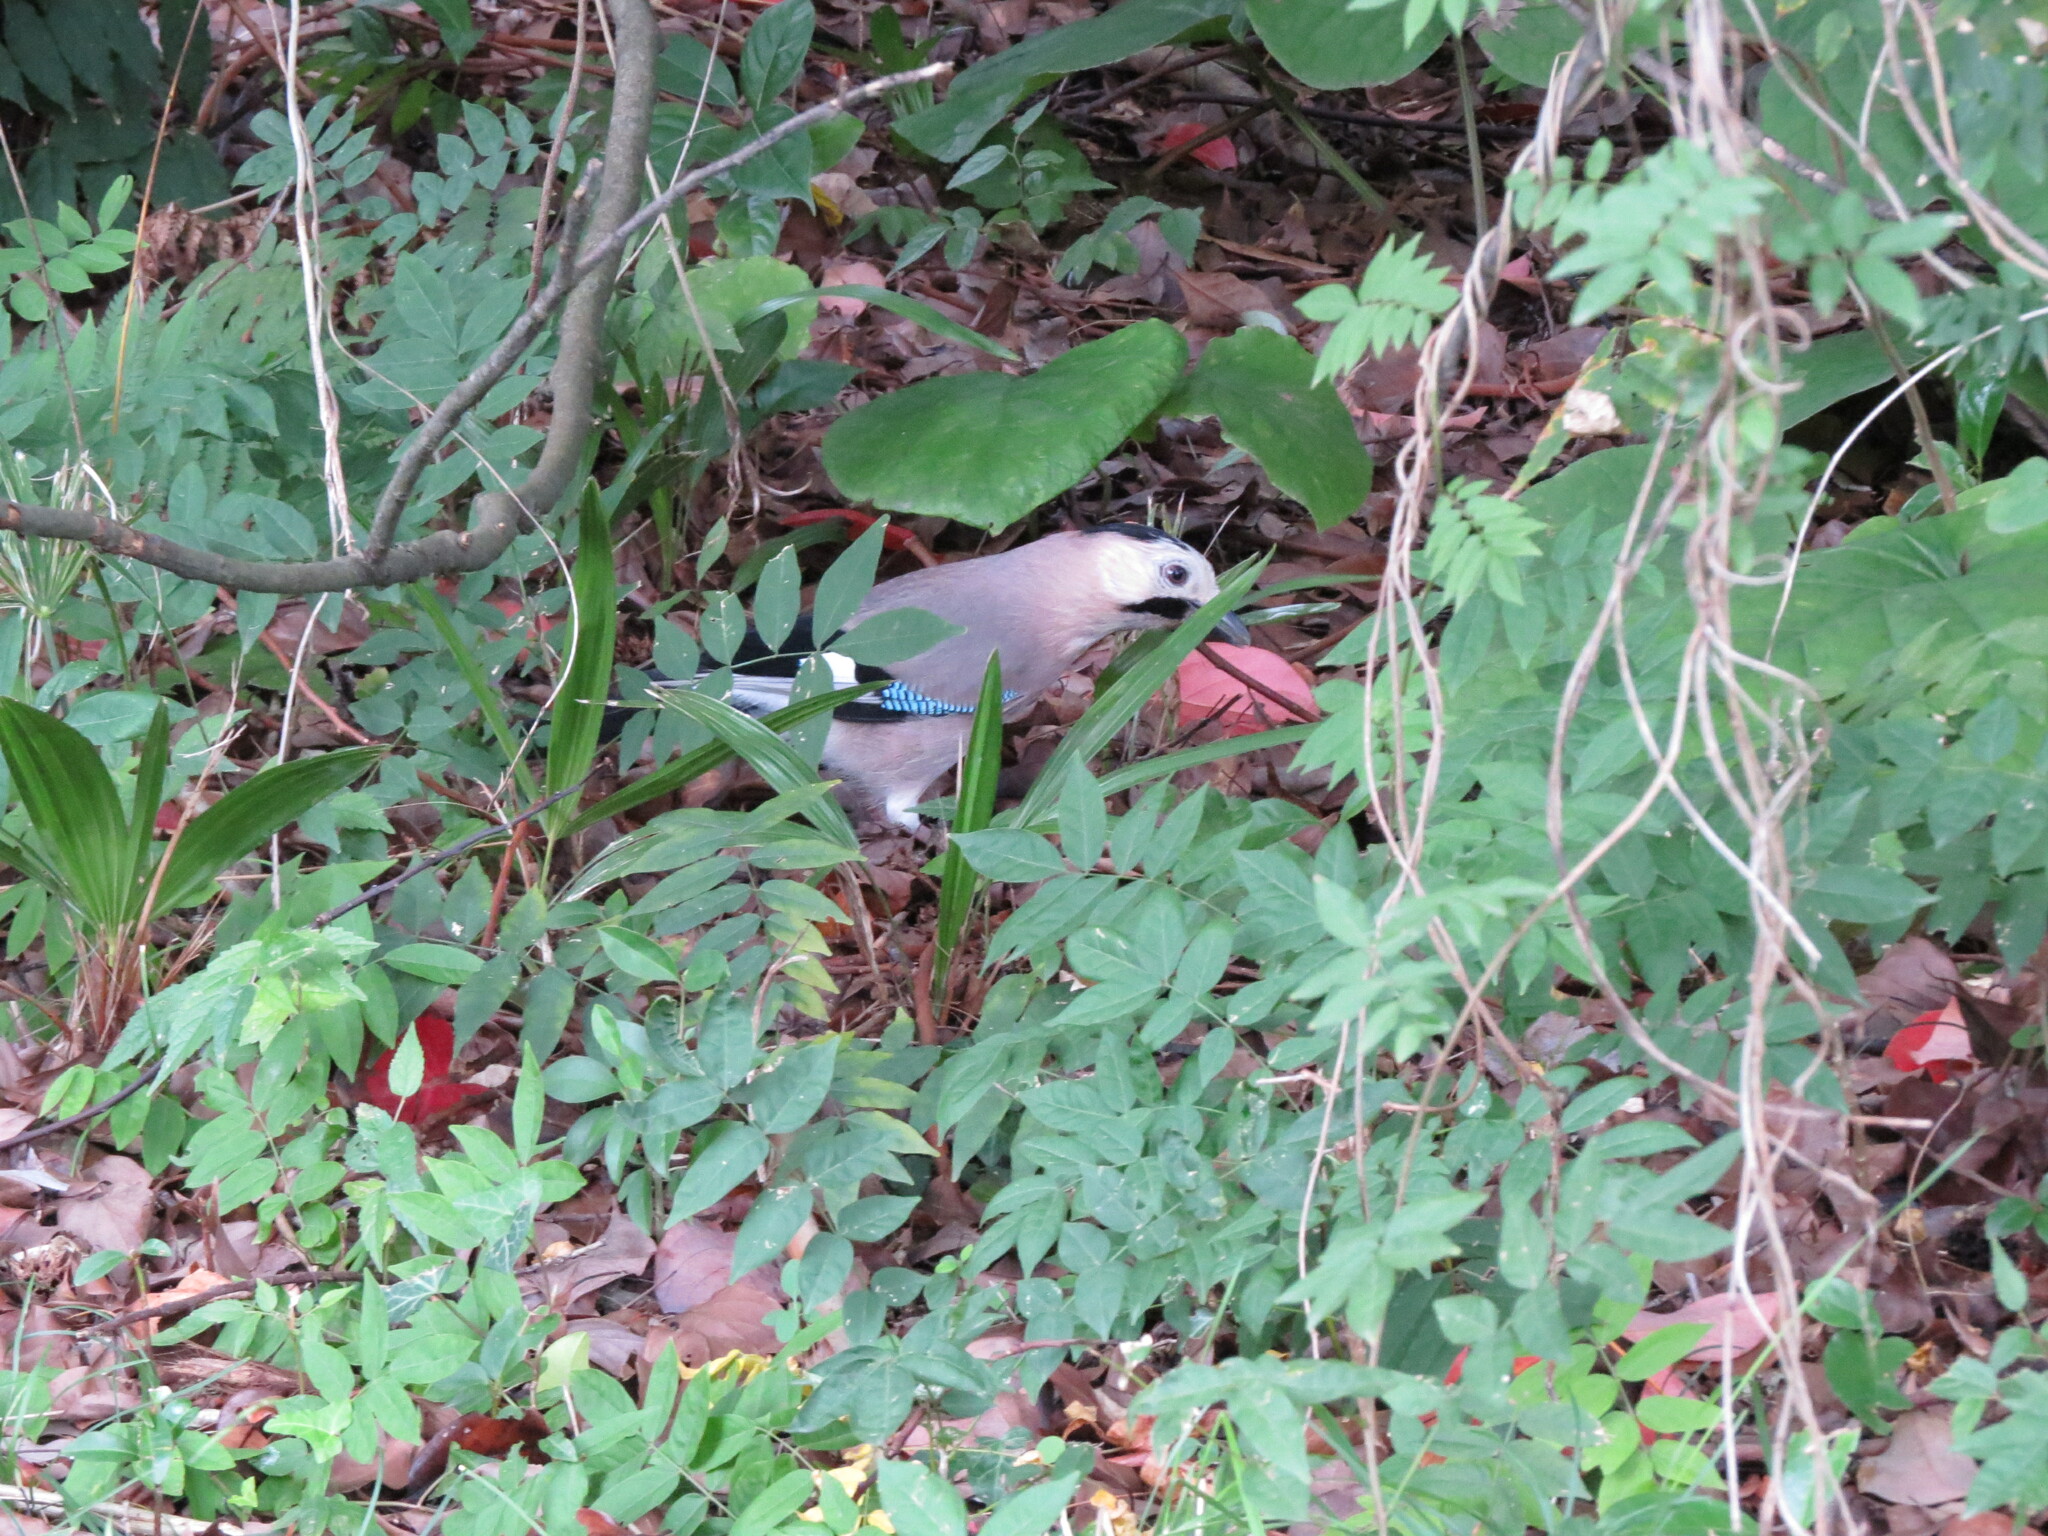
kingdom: Animalia
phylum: Chordata
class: Aves
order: Passeriformes
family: Corvidae
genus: Garrulus
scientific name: Garrulus glandarius
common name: Eurasian jay
